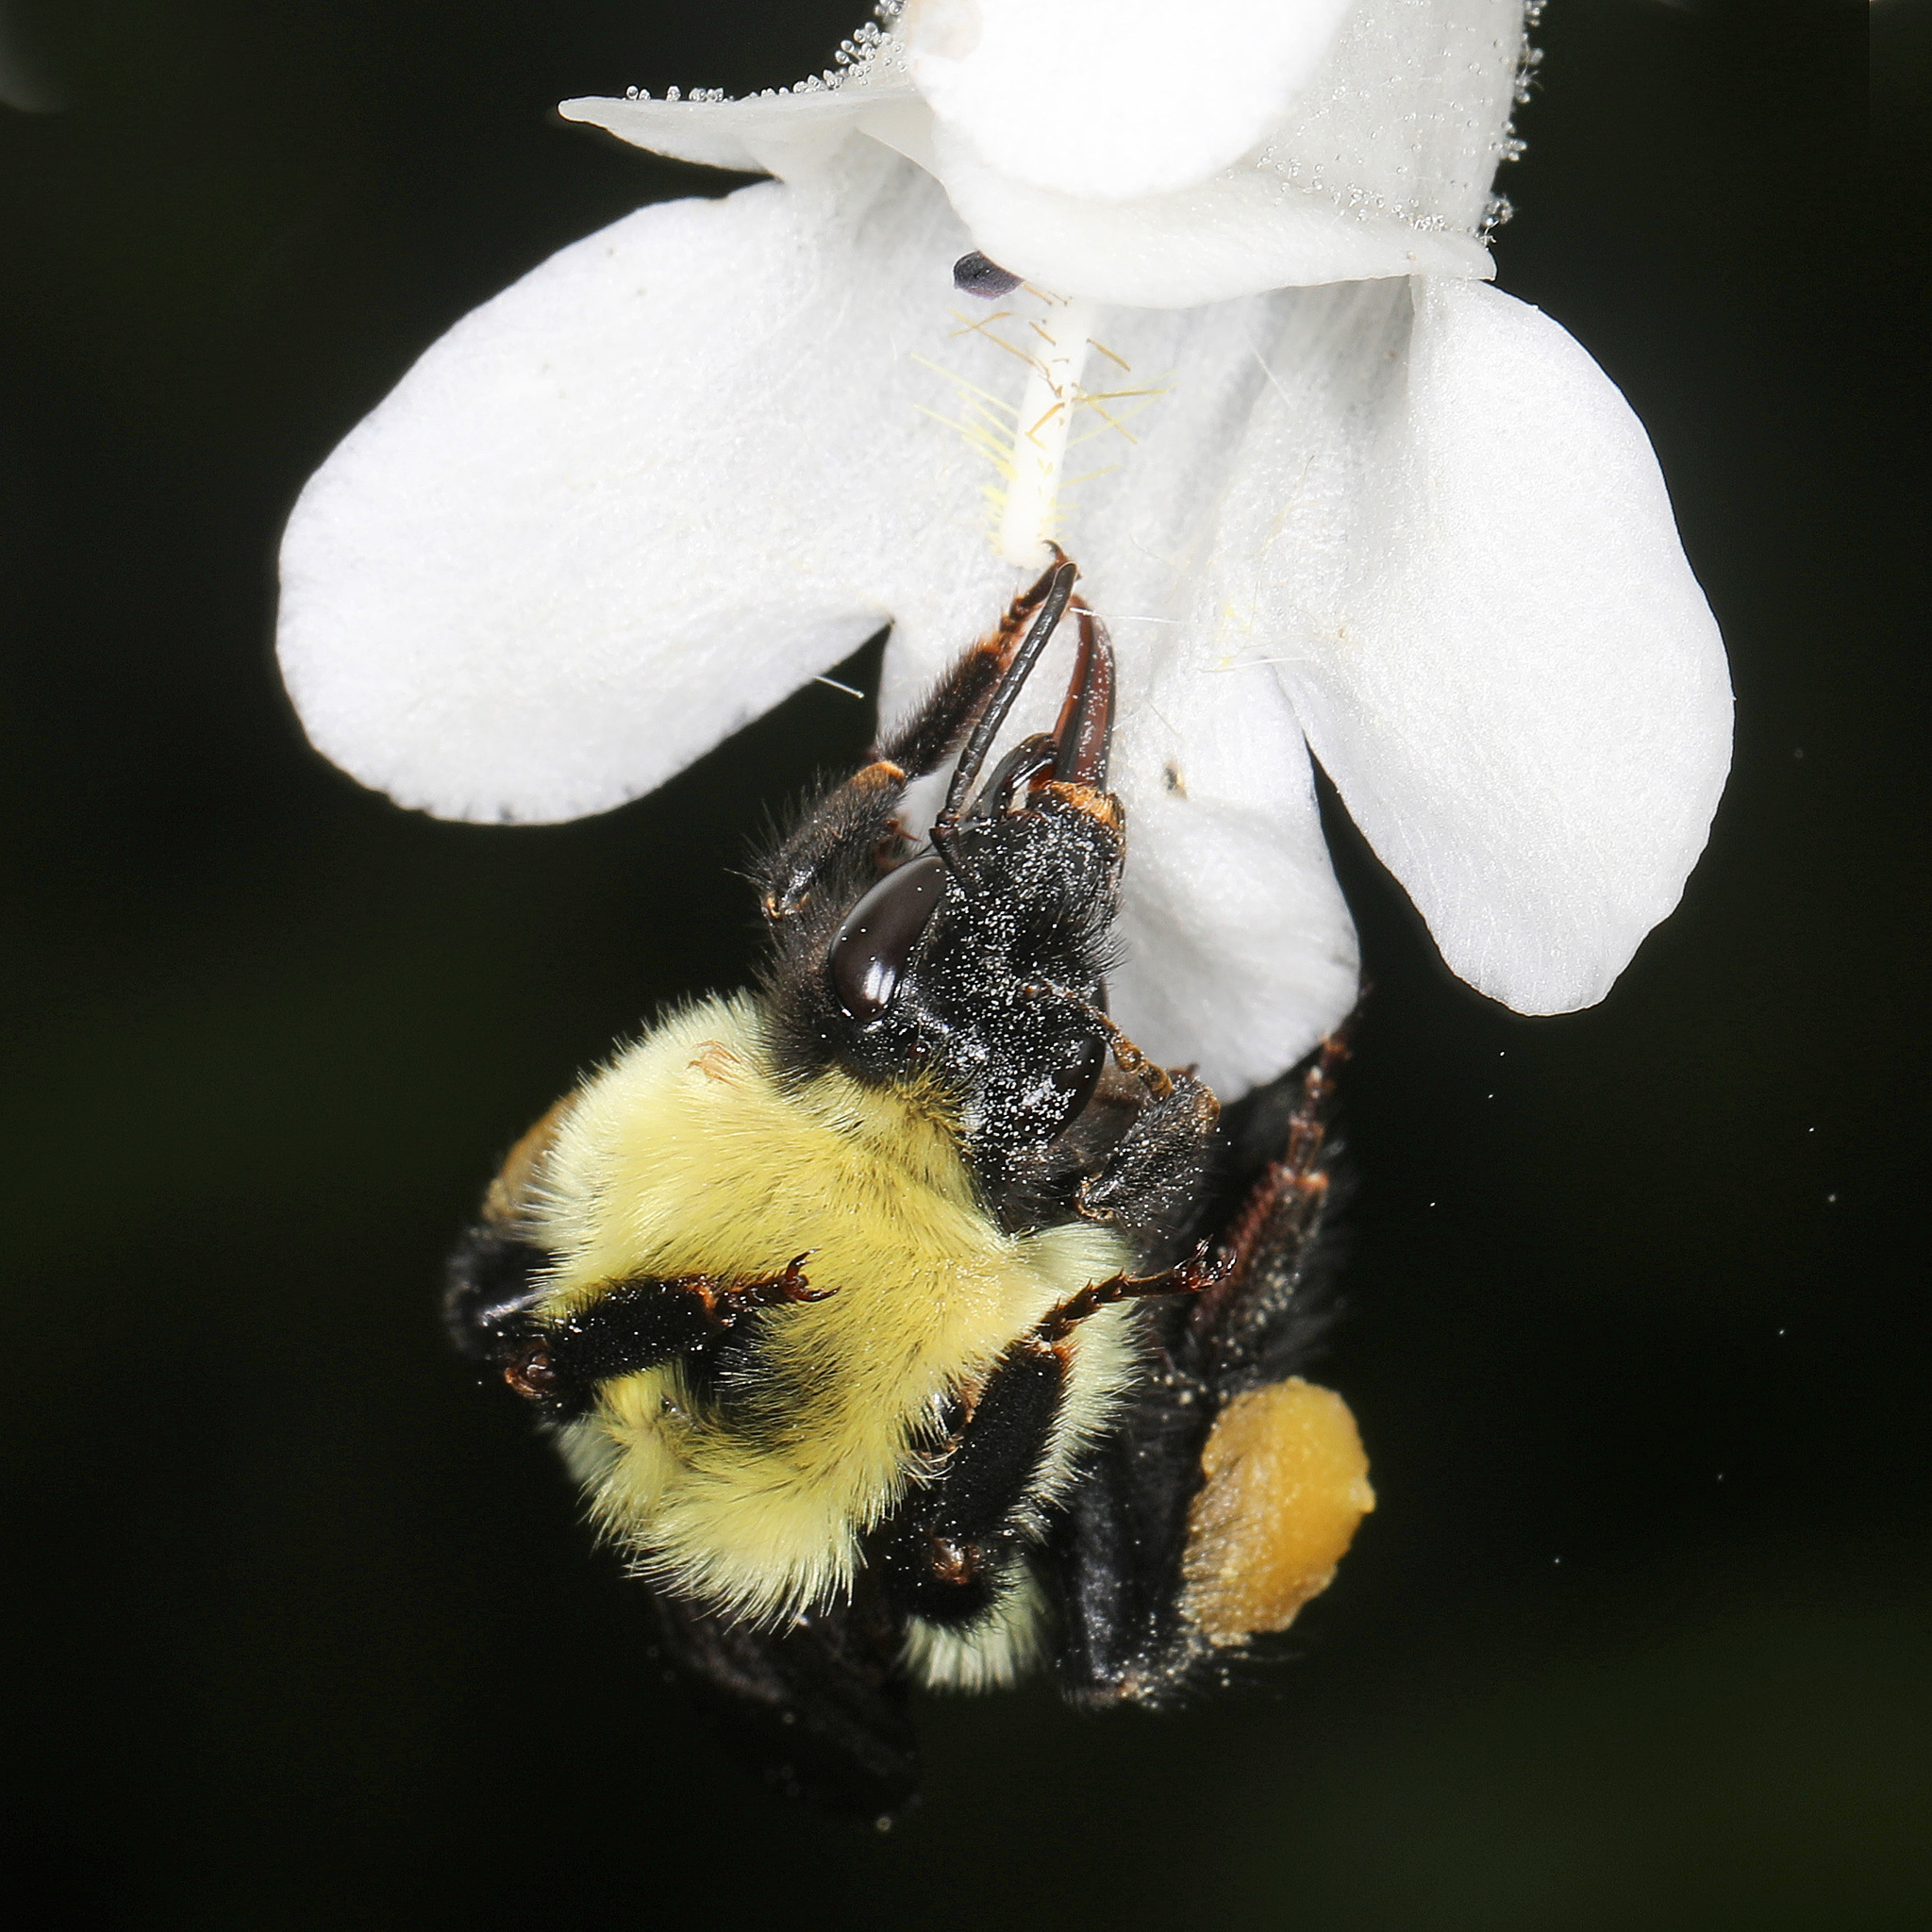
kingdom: Animalia
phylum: Arthropoda
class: Insecta
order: Hymenoptera
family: Apidae
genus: Bombus
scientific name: Bombus bimaculatus
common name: Two-spotted bumble bee
